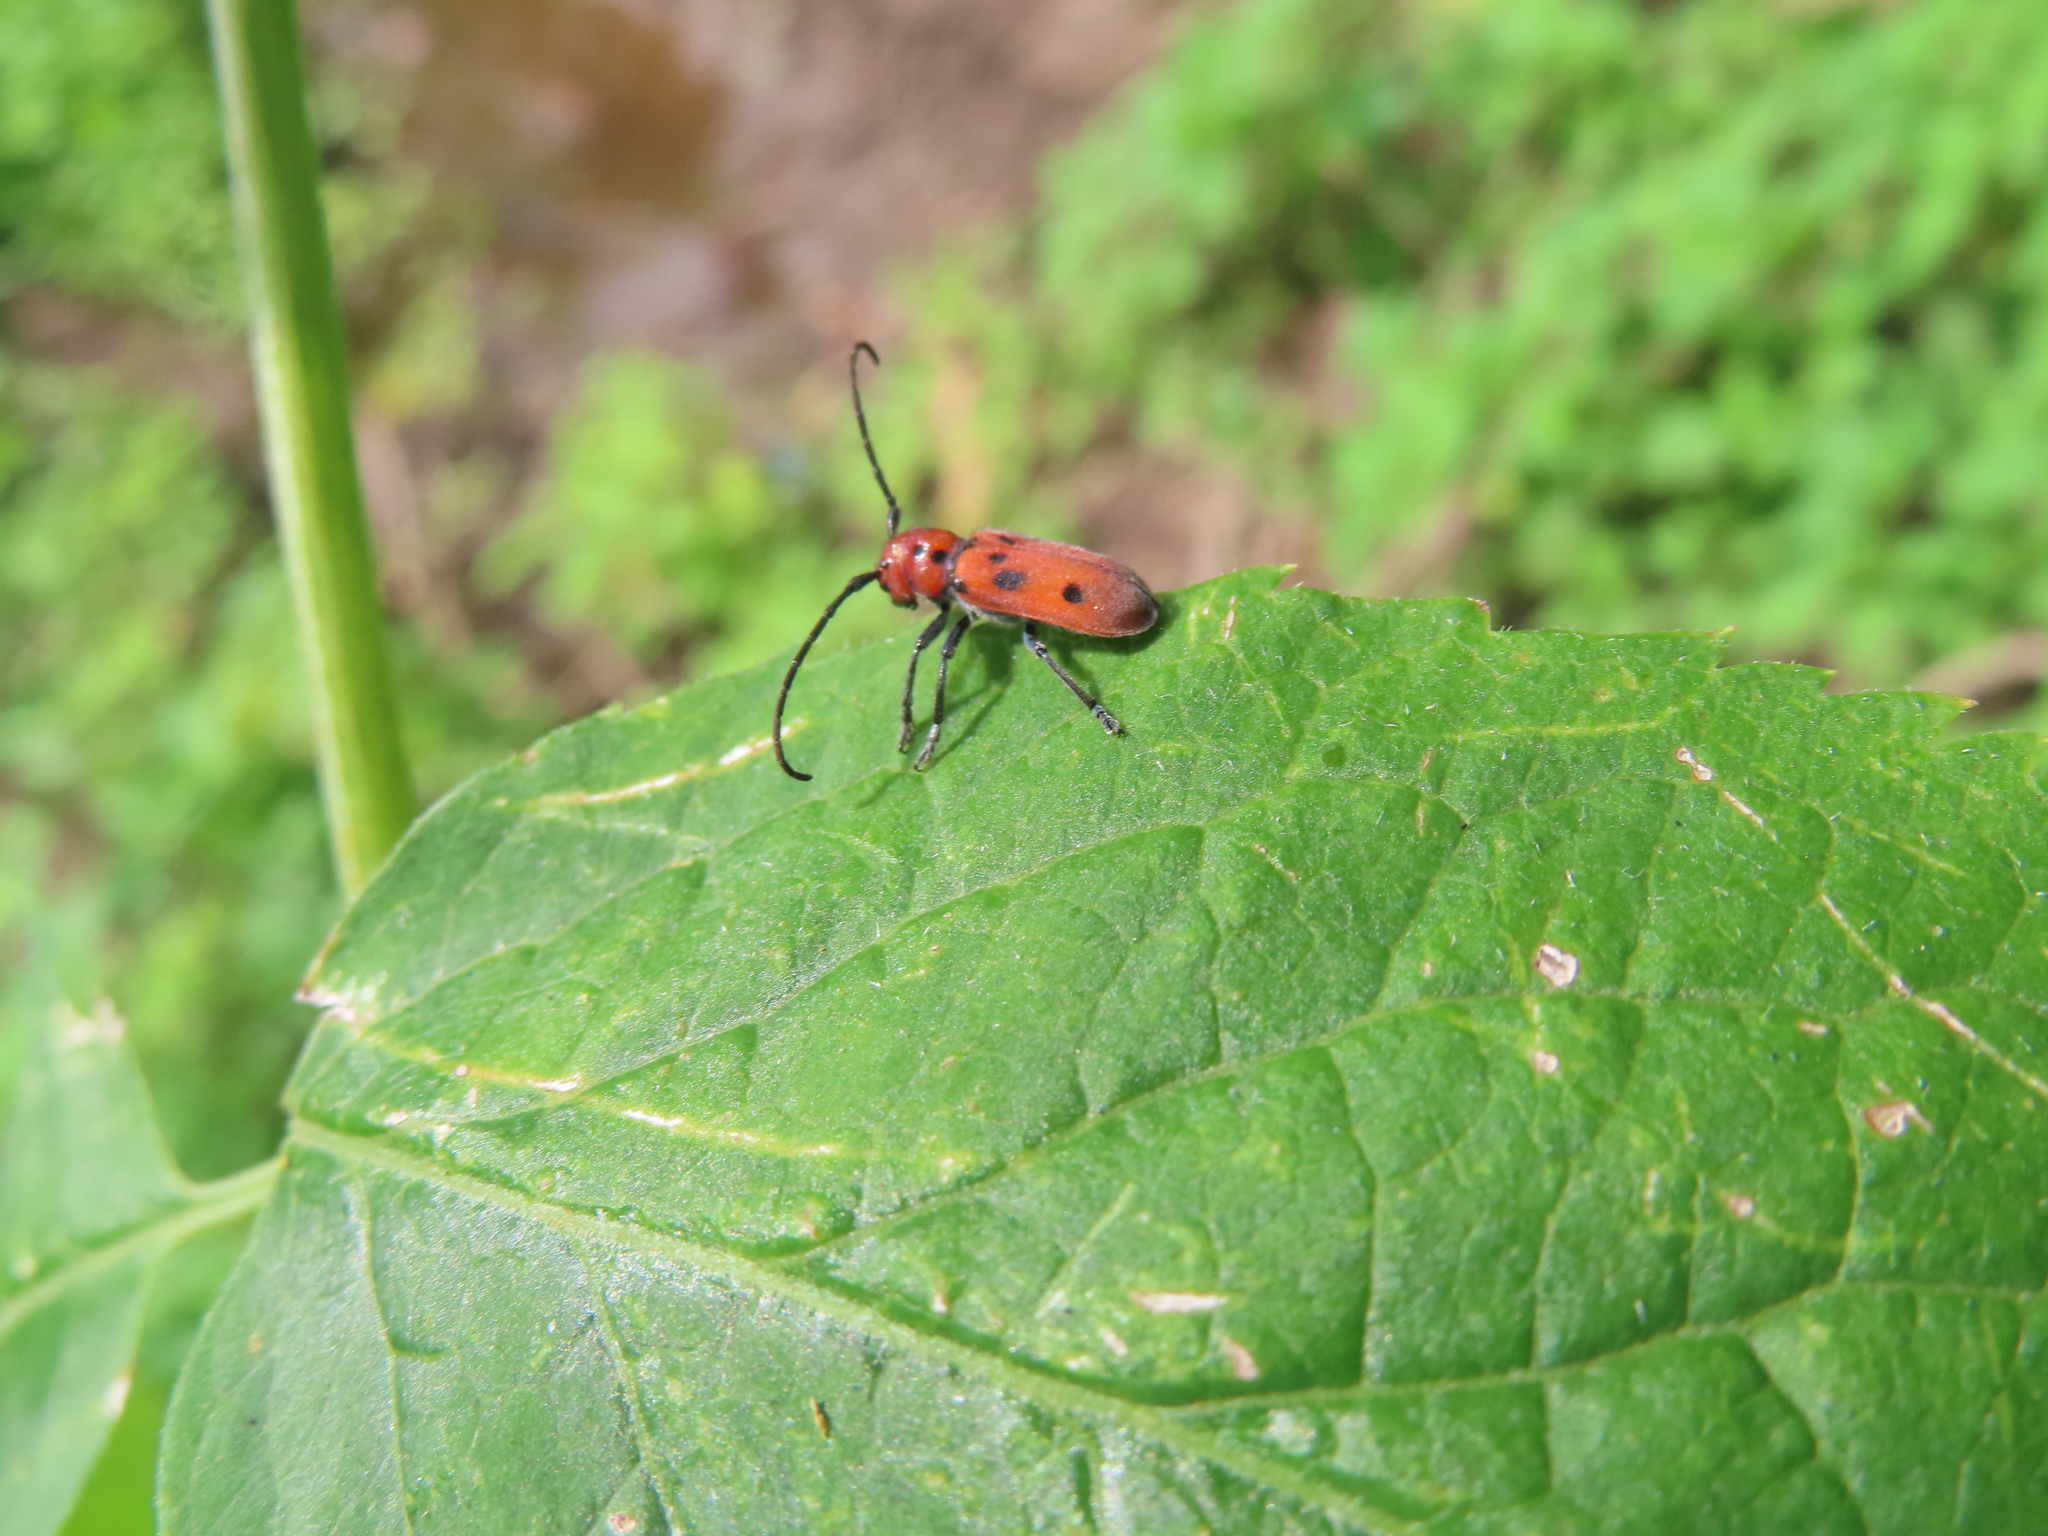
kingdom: Animalia
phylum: Arthropoda
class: Insecta
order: Coleoptera
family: Cerambycidae
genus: Tetraopes
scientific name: Tetraopes tetrophthalmus
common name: Red milkweed beetle
